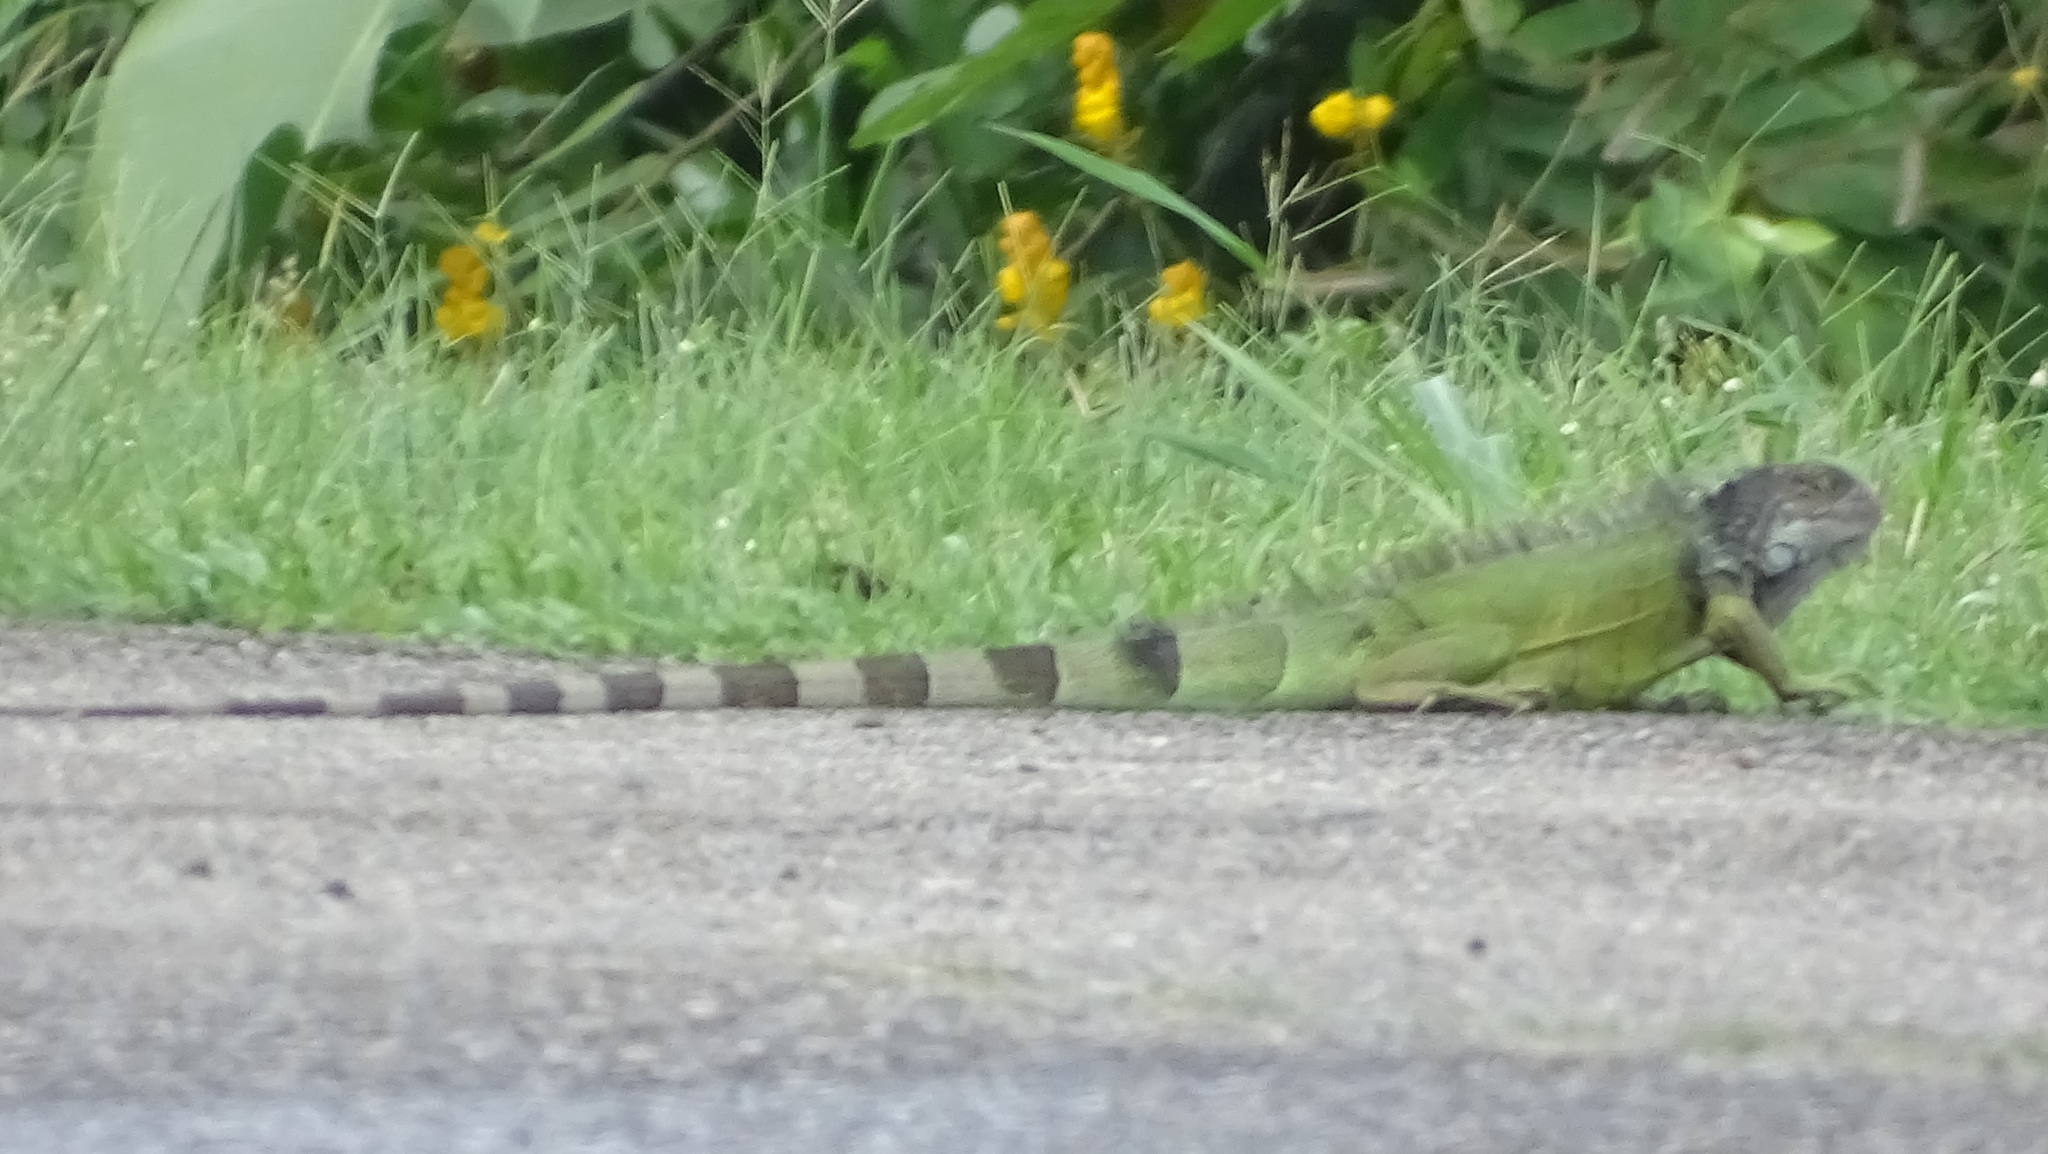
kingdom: Animalia
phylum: Chordata
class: Squamata
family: Iguanidae
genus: Iguana
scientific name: Iguana iguana
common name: Green iguana
